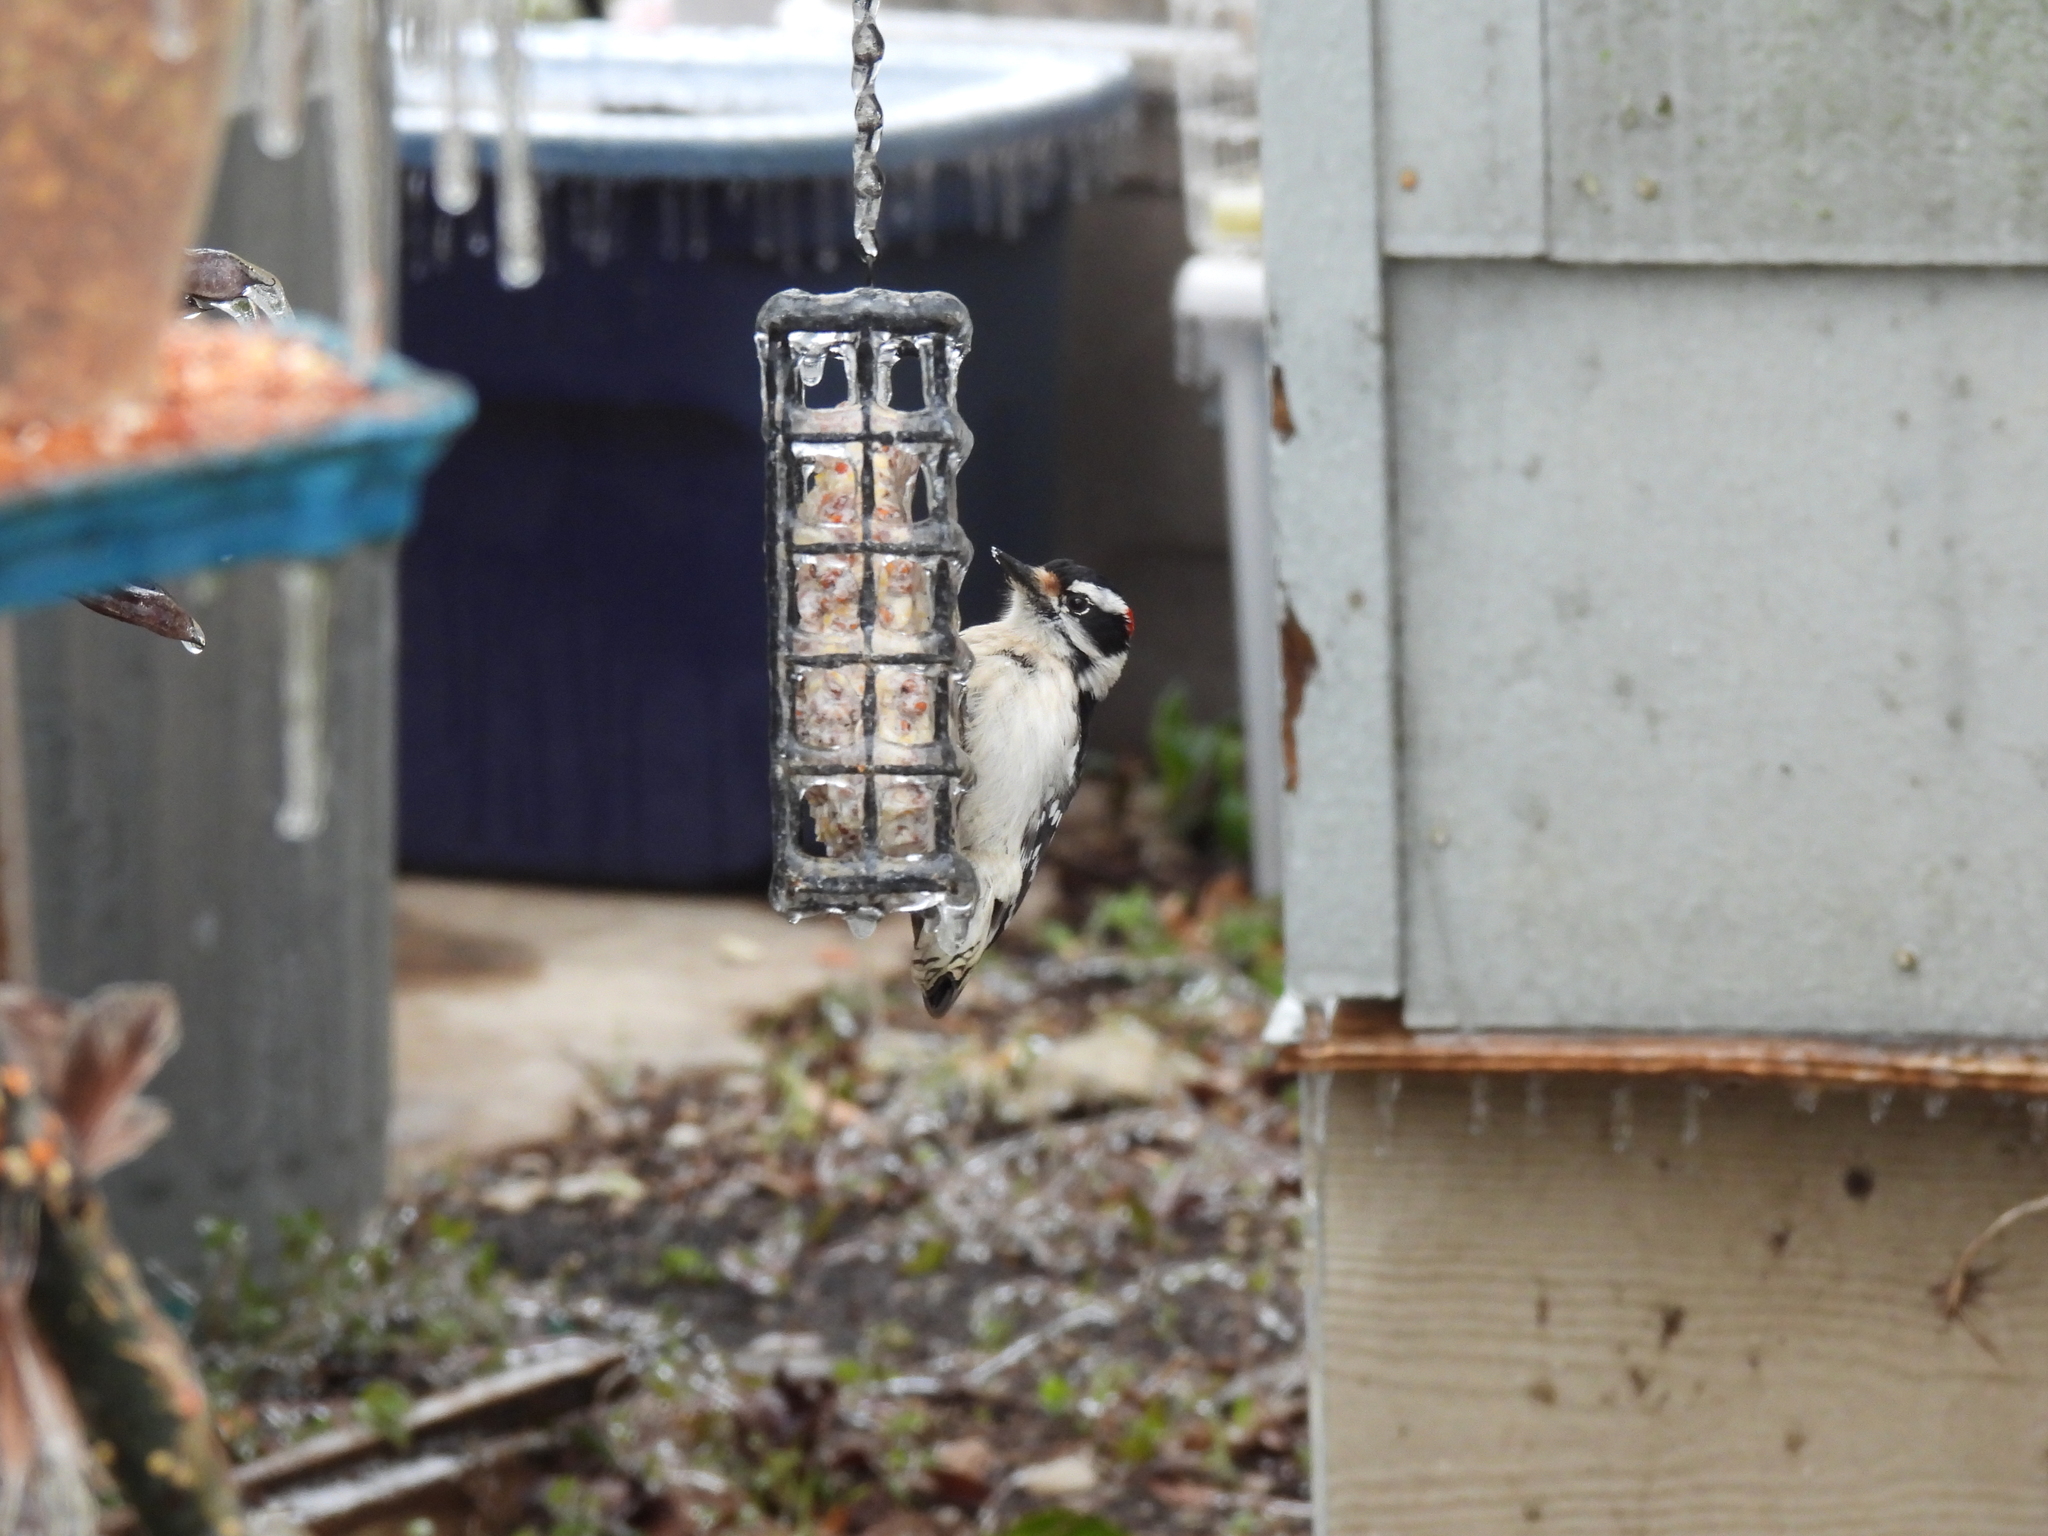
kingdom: Animalia
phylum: Chordata
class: Aves
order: Piciformes
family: Picidae
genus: Dryobates
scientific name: Dryobates pubescens
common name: Downy woodpecker
